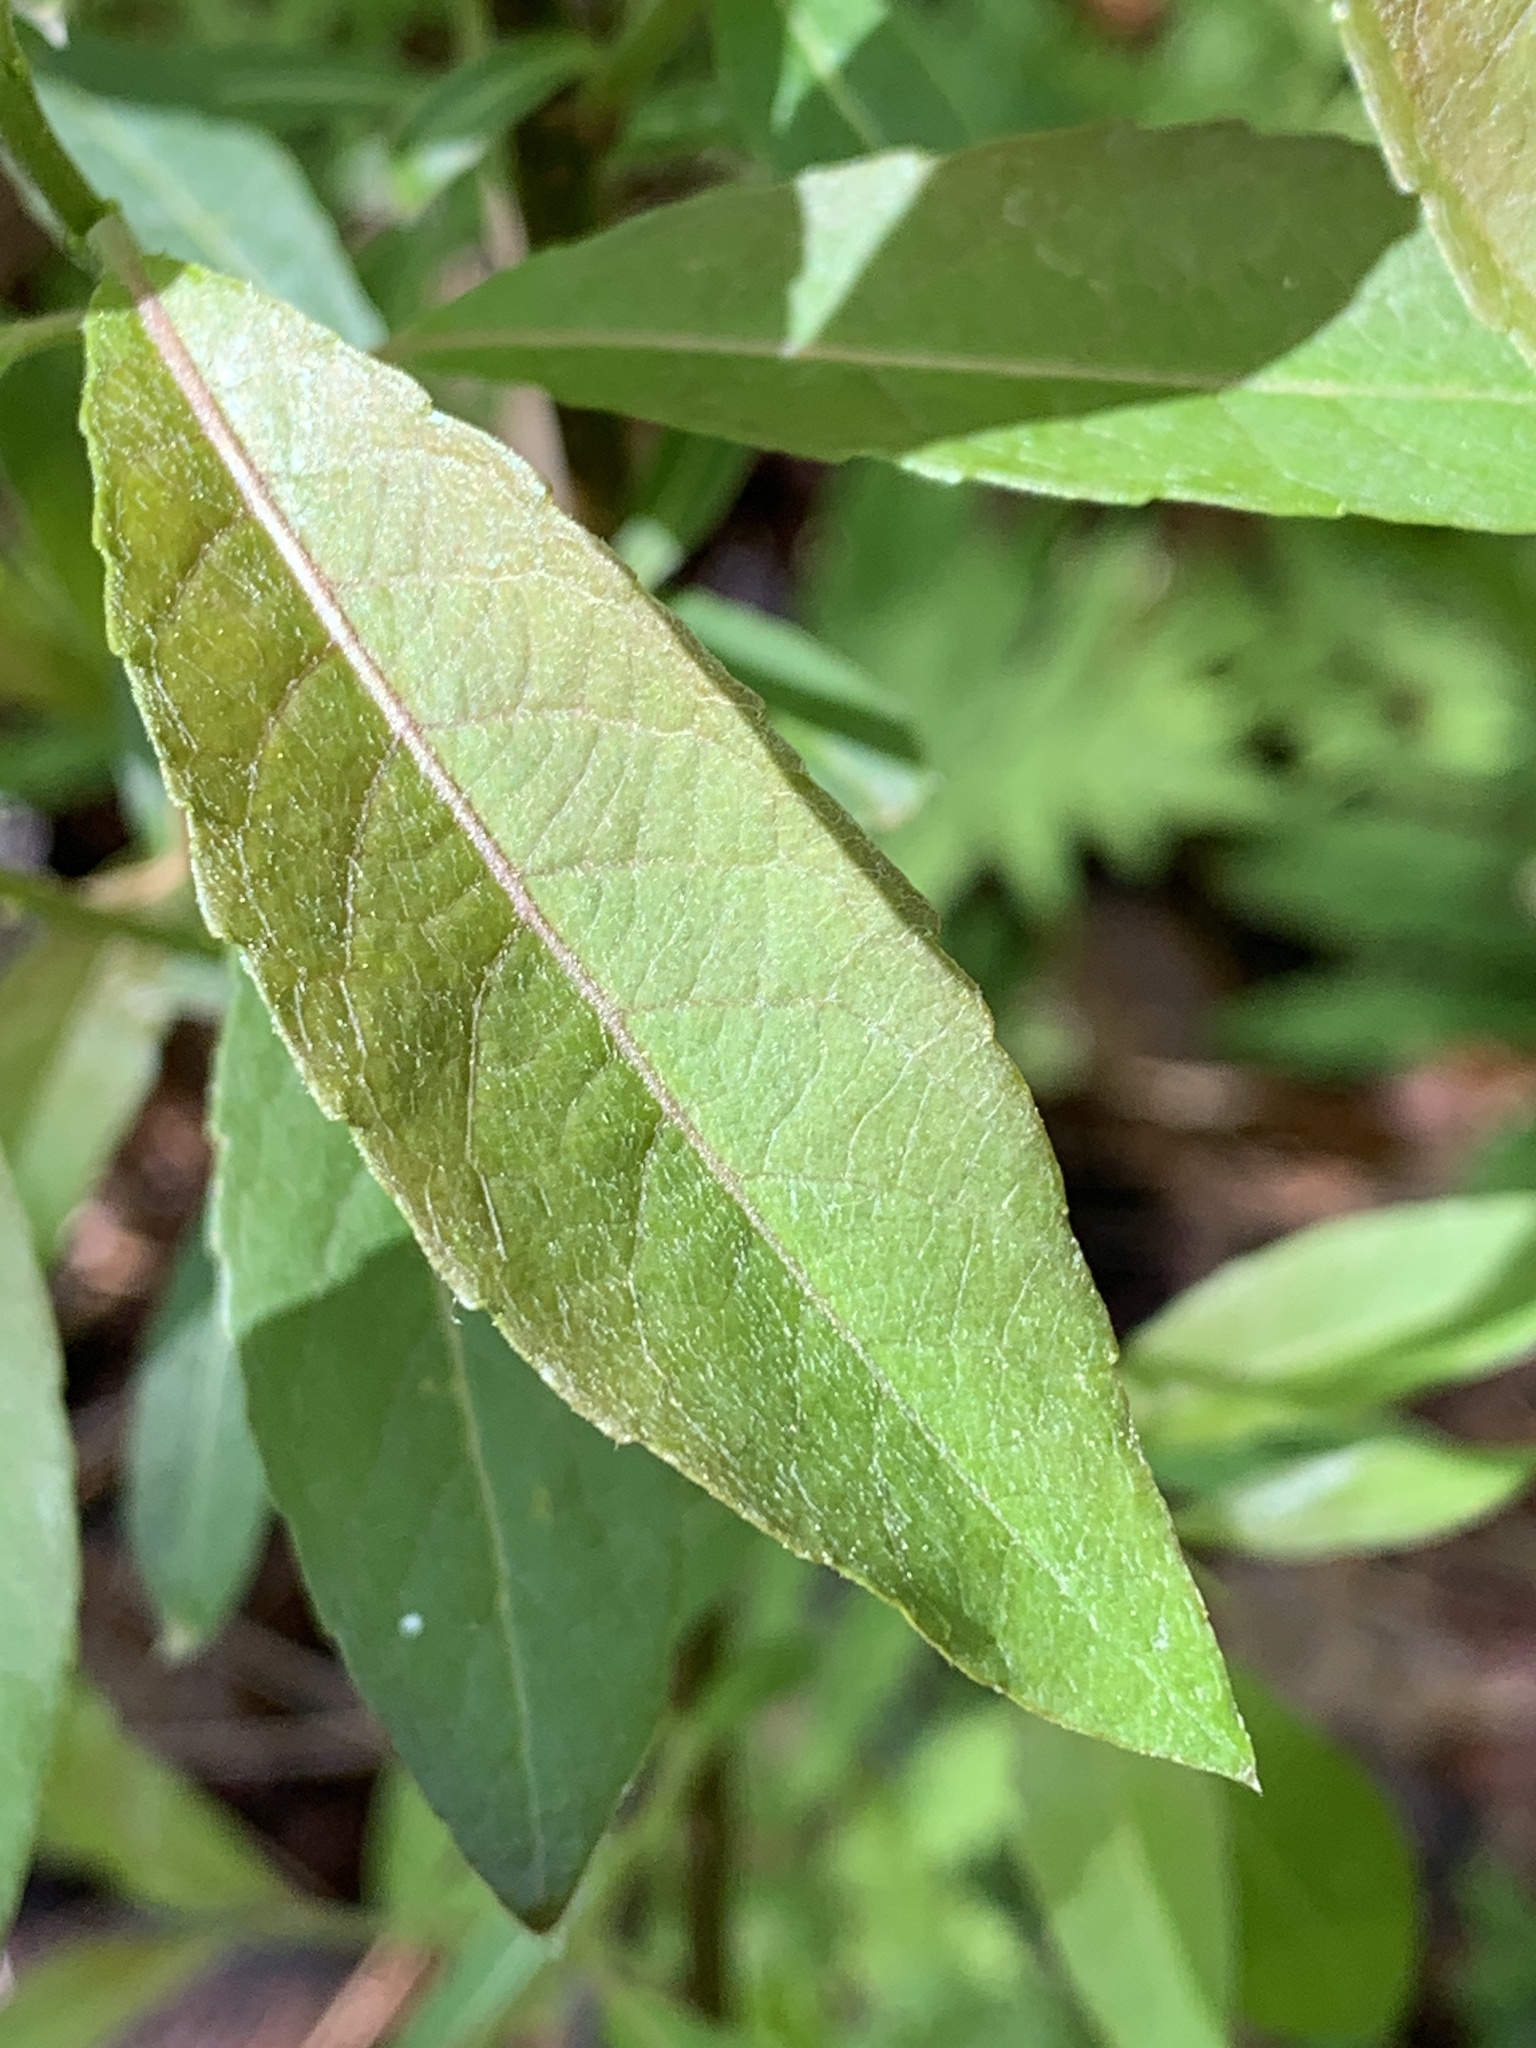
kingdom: Plantae
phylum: Tracheophyta
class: Magnoliopsida
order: Malpighiales
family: Salicaceae
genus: Salix
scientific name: Salix discolor
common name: Glaucous willow
